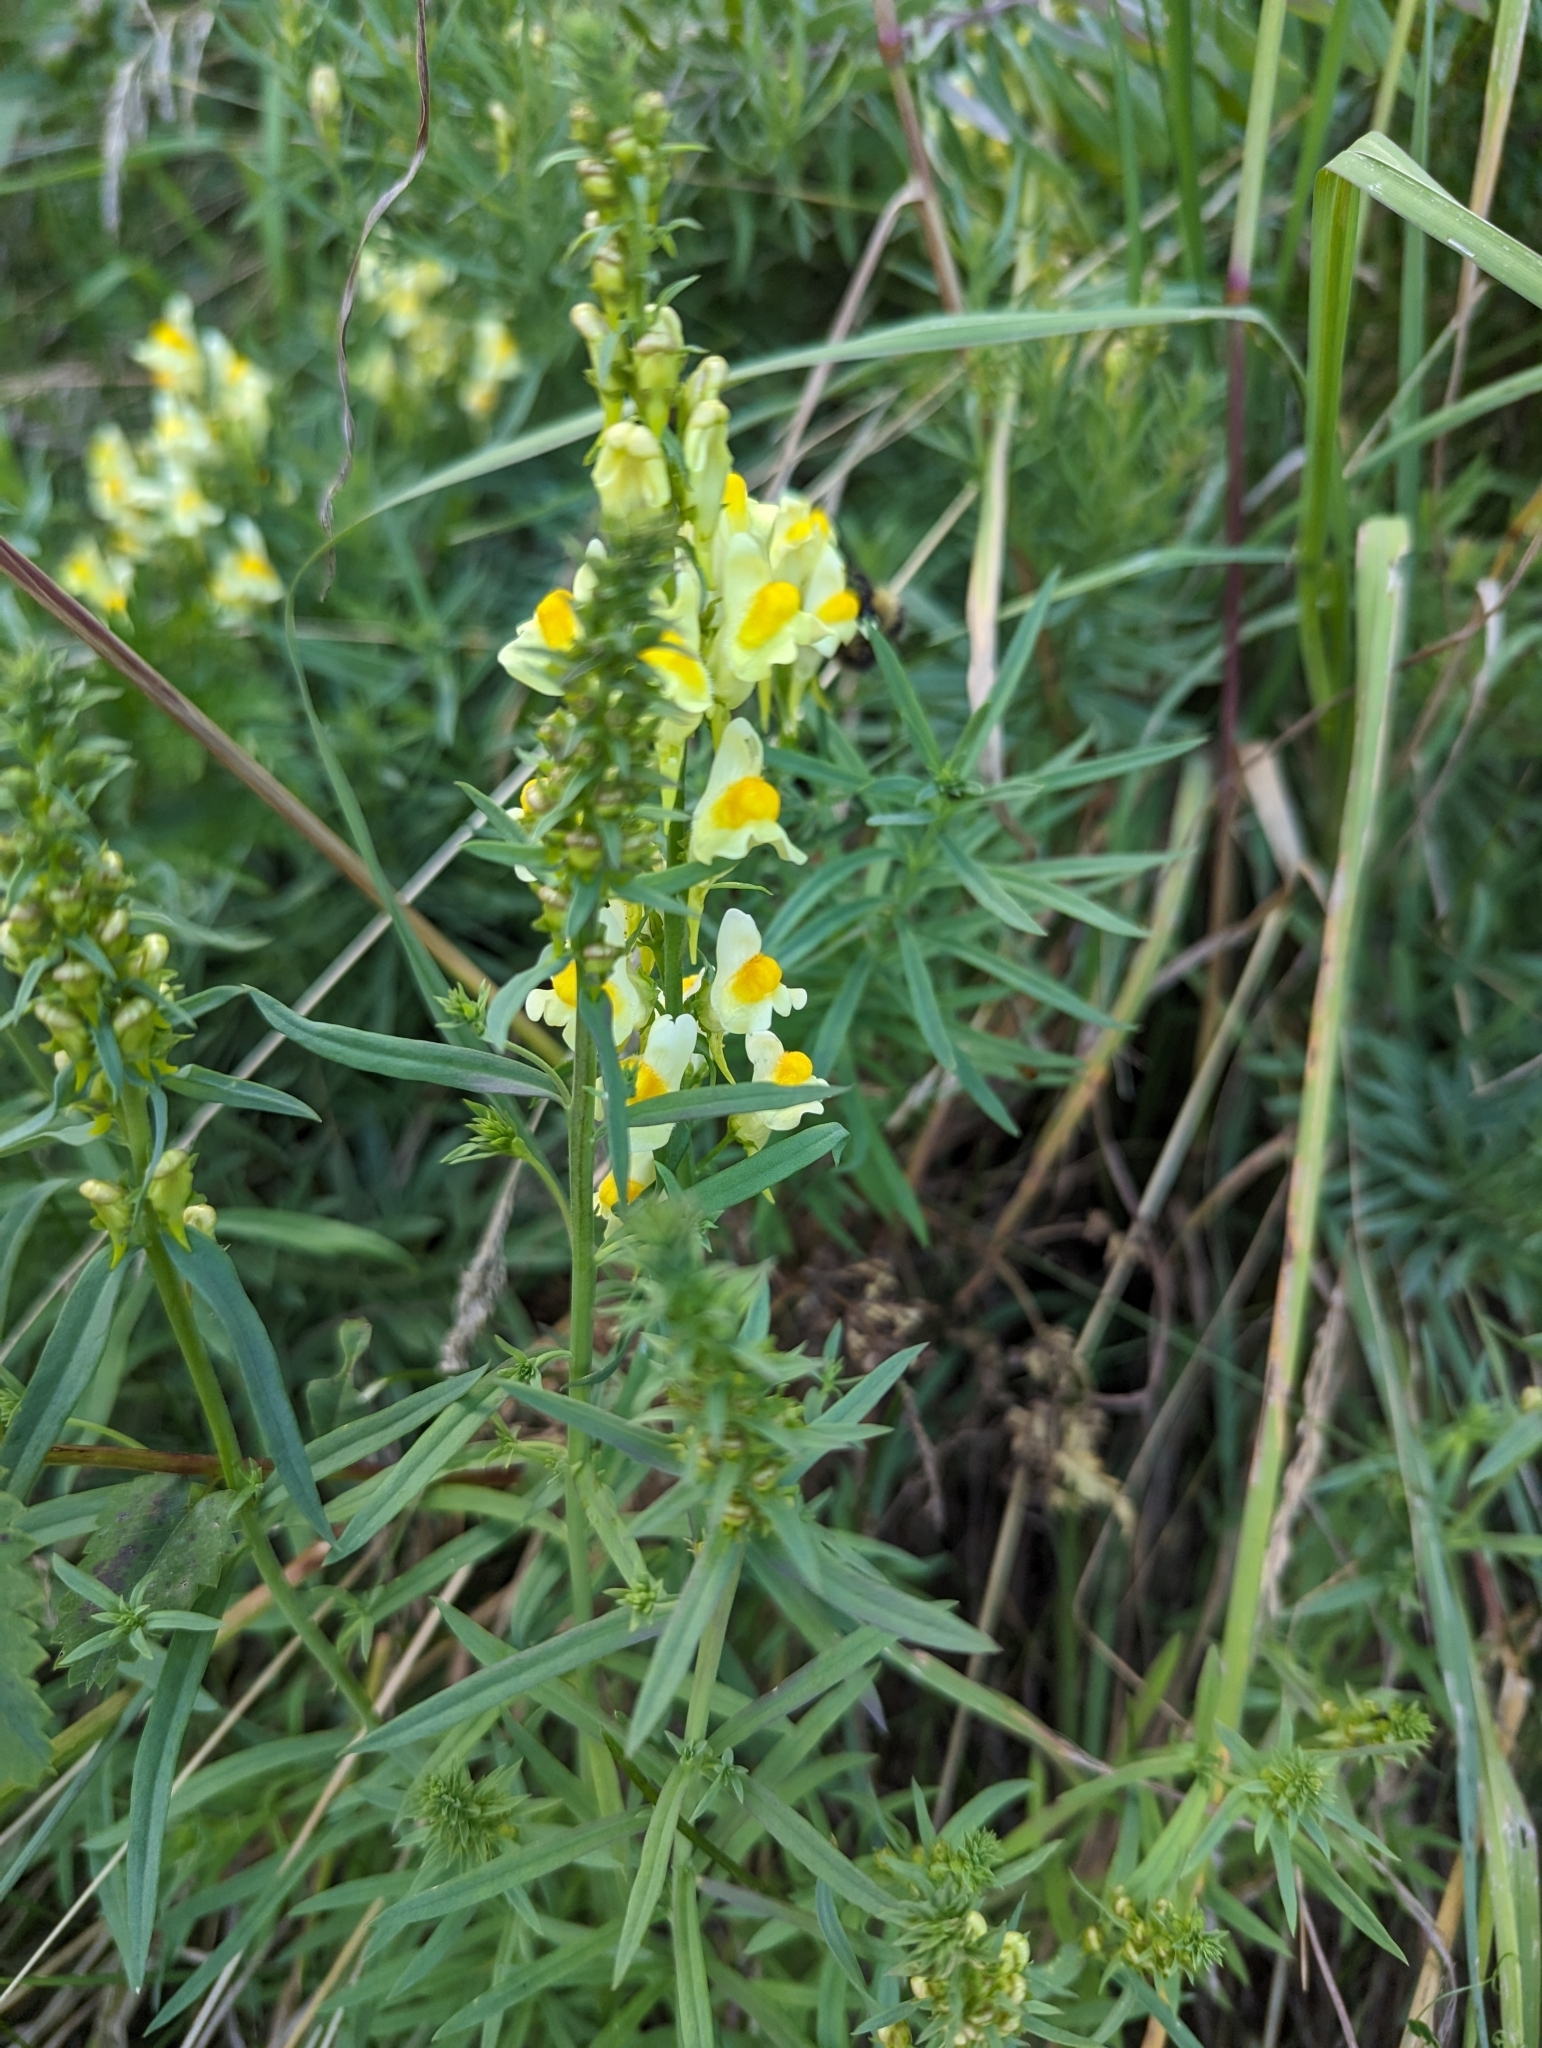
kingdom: Plantae
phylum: Tracheophyta
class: Magnoliopsida
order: Lamiales
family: Plantaginaceae
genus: Linaria
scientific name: Linaria vulgaris
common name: Butter and eggs
